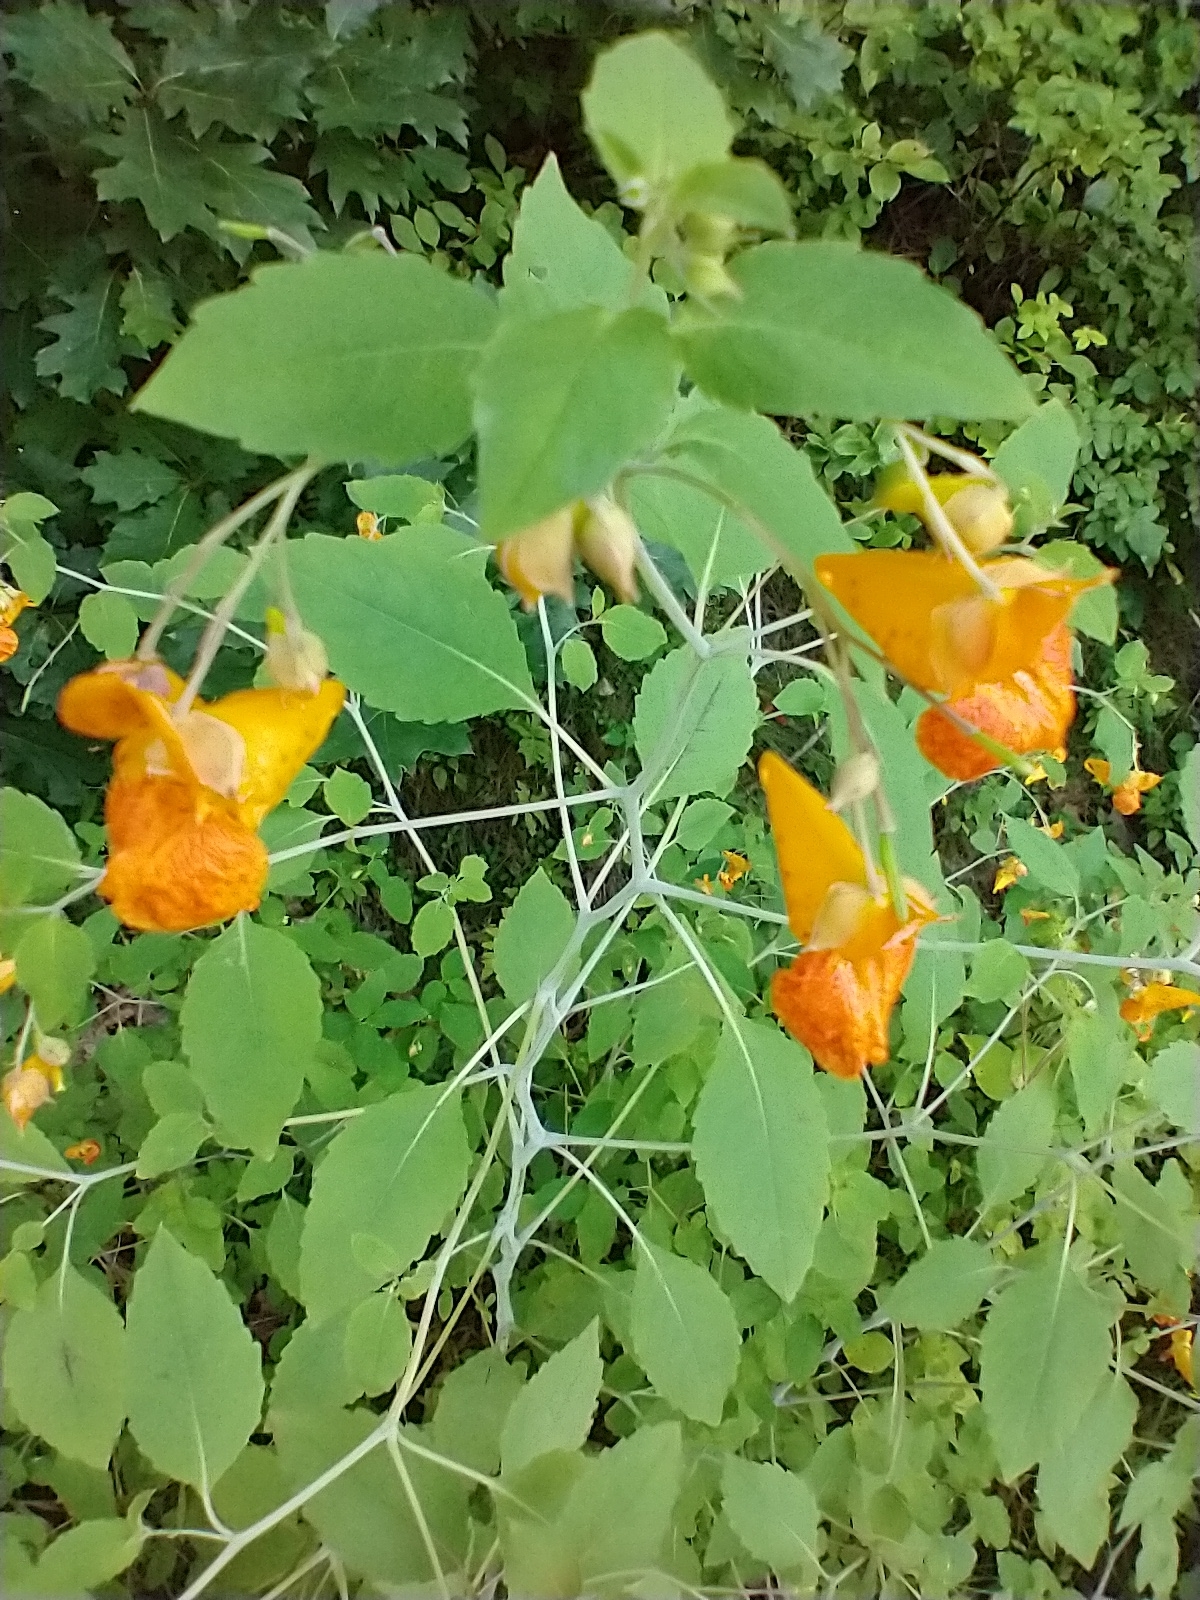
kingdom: Plantae
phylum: Tracheophyta
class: Magnoliopsida
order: Ericales
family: Balsaminaceae
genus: Impatiens
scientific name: Impatiens capensis
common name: Orange balsam
